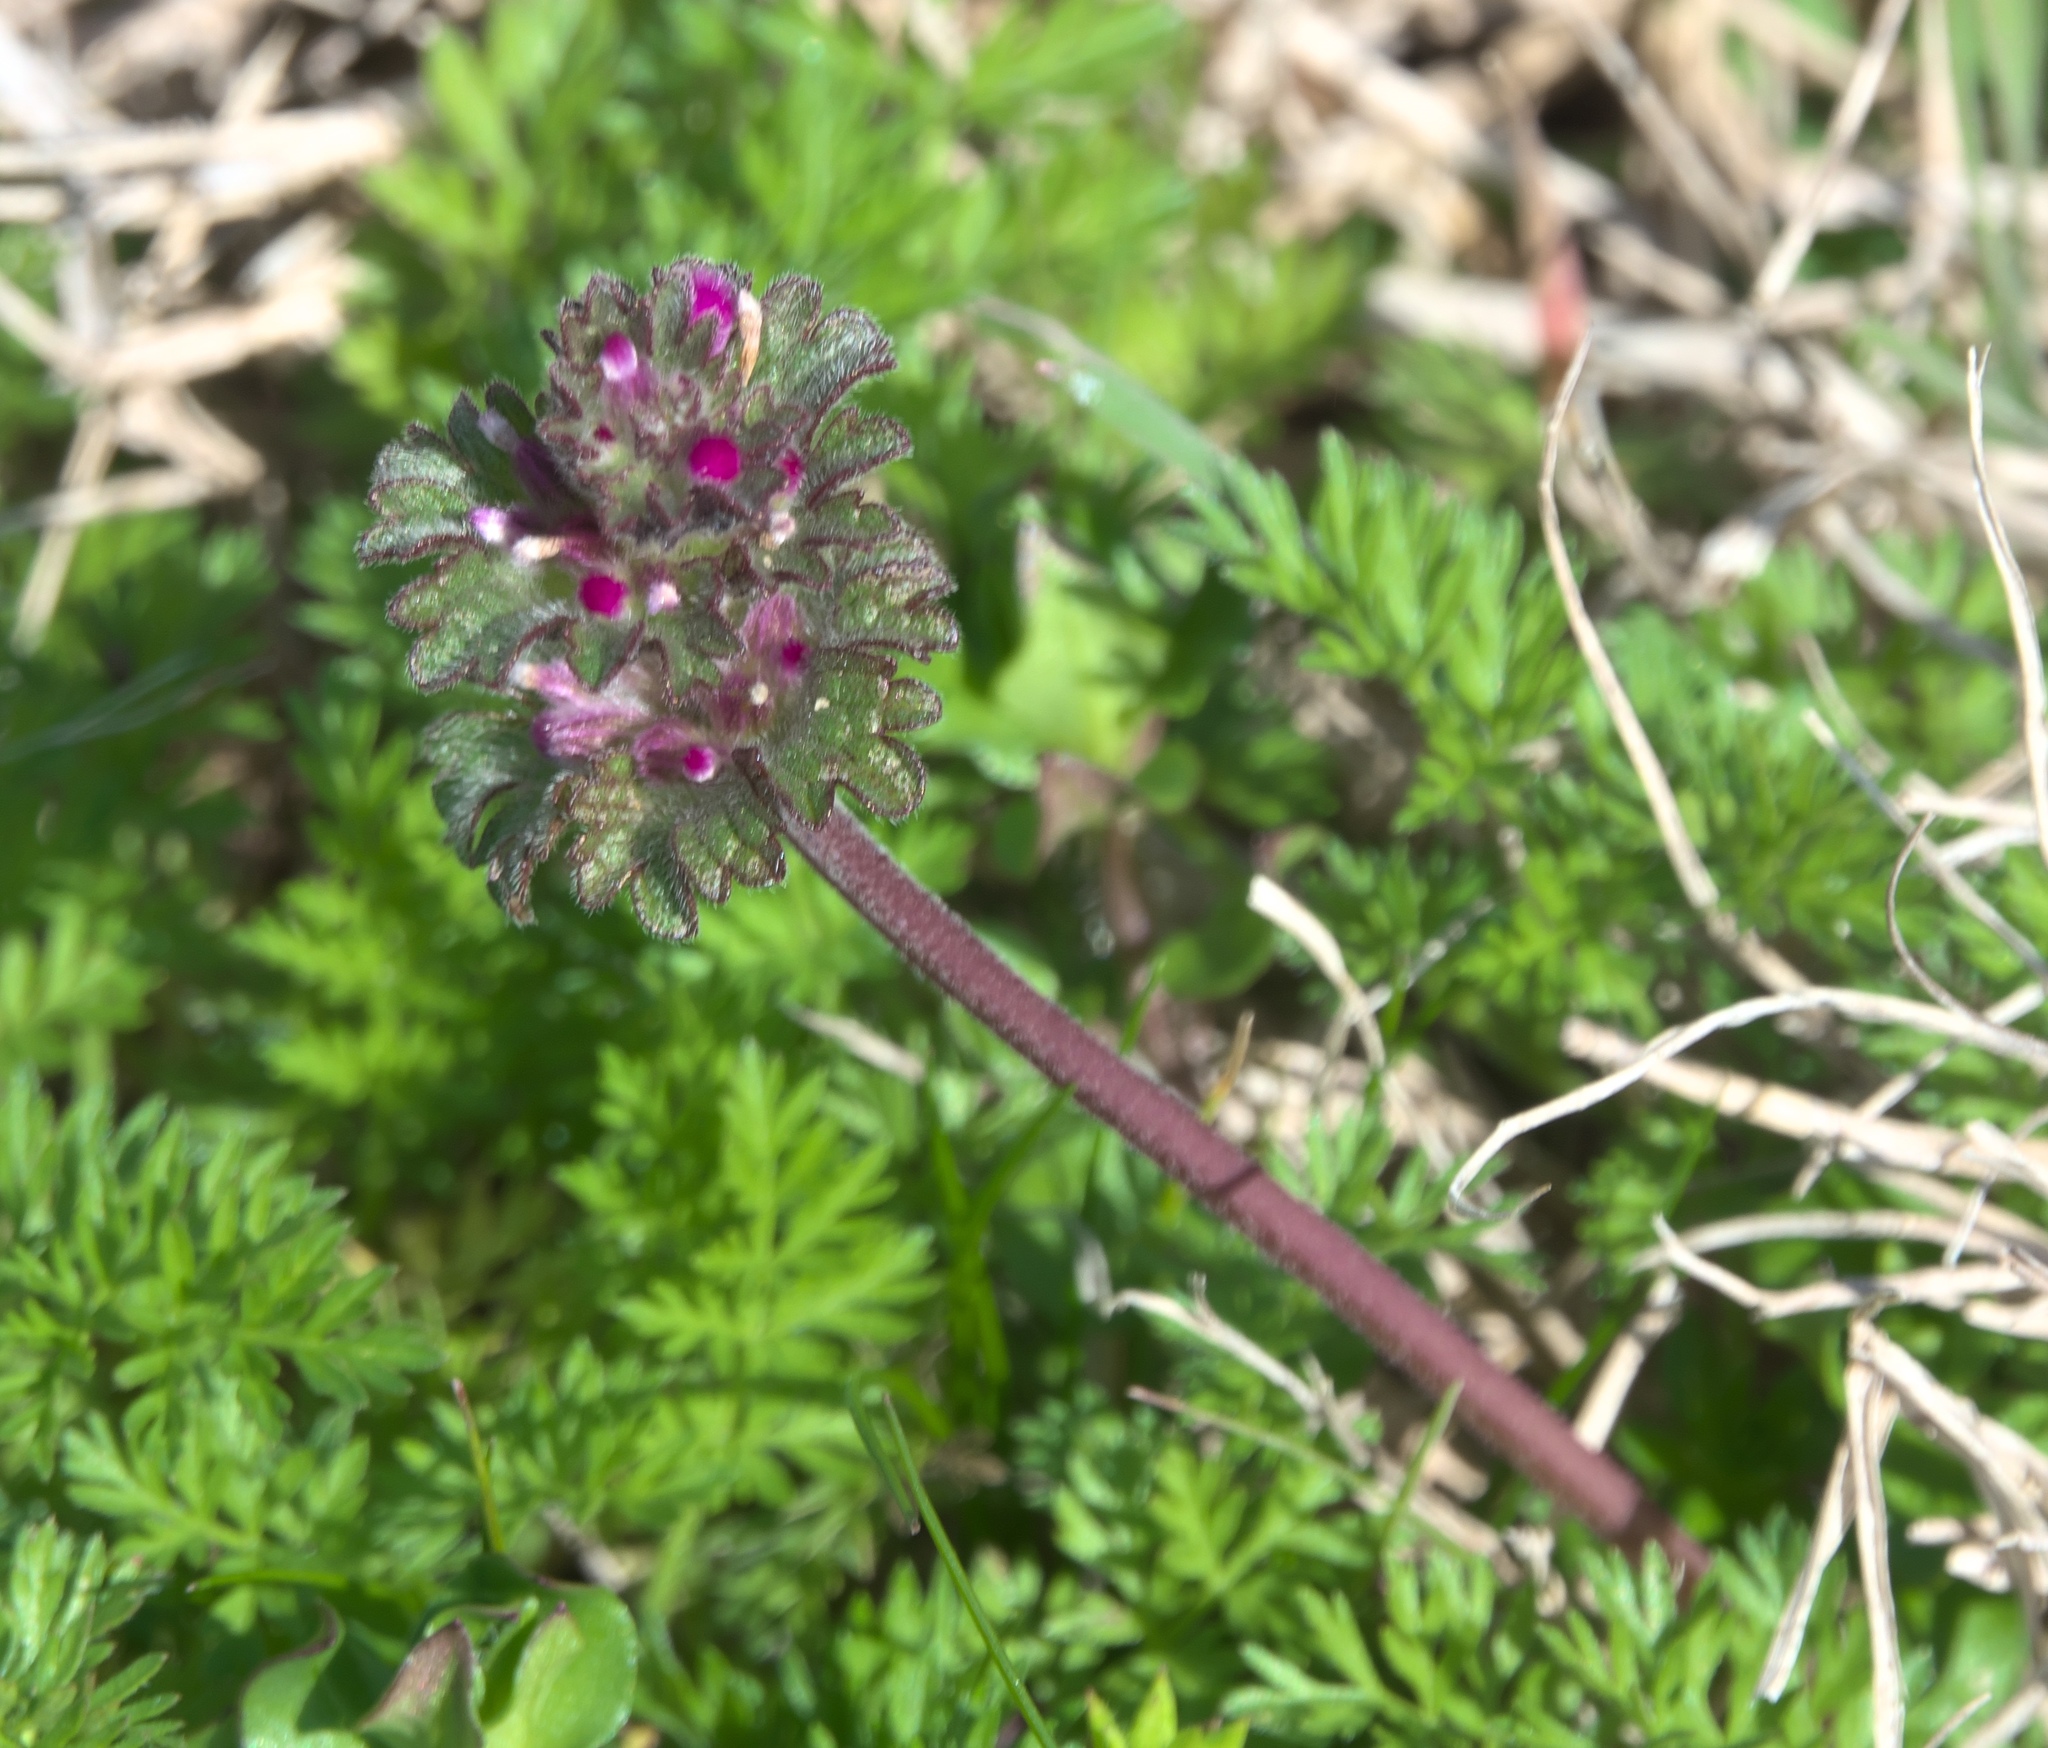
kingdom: Plantae
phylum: Tracheophyta
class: Magnoliopsida
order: Lamiales
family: Lamiaceae
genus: Lamium
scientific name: Lamium amplexicaule
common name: Henbit dead-nettle
